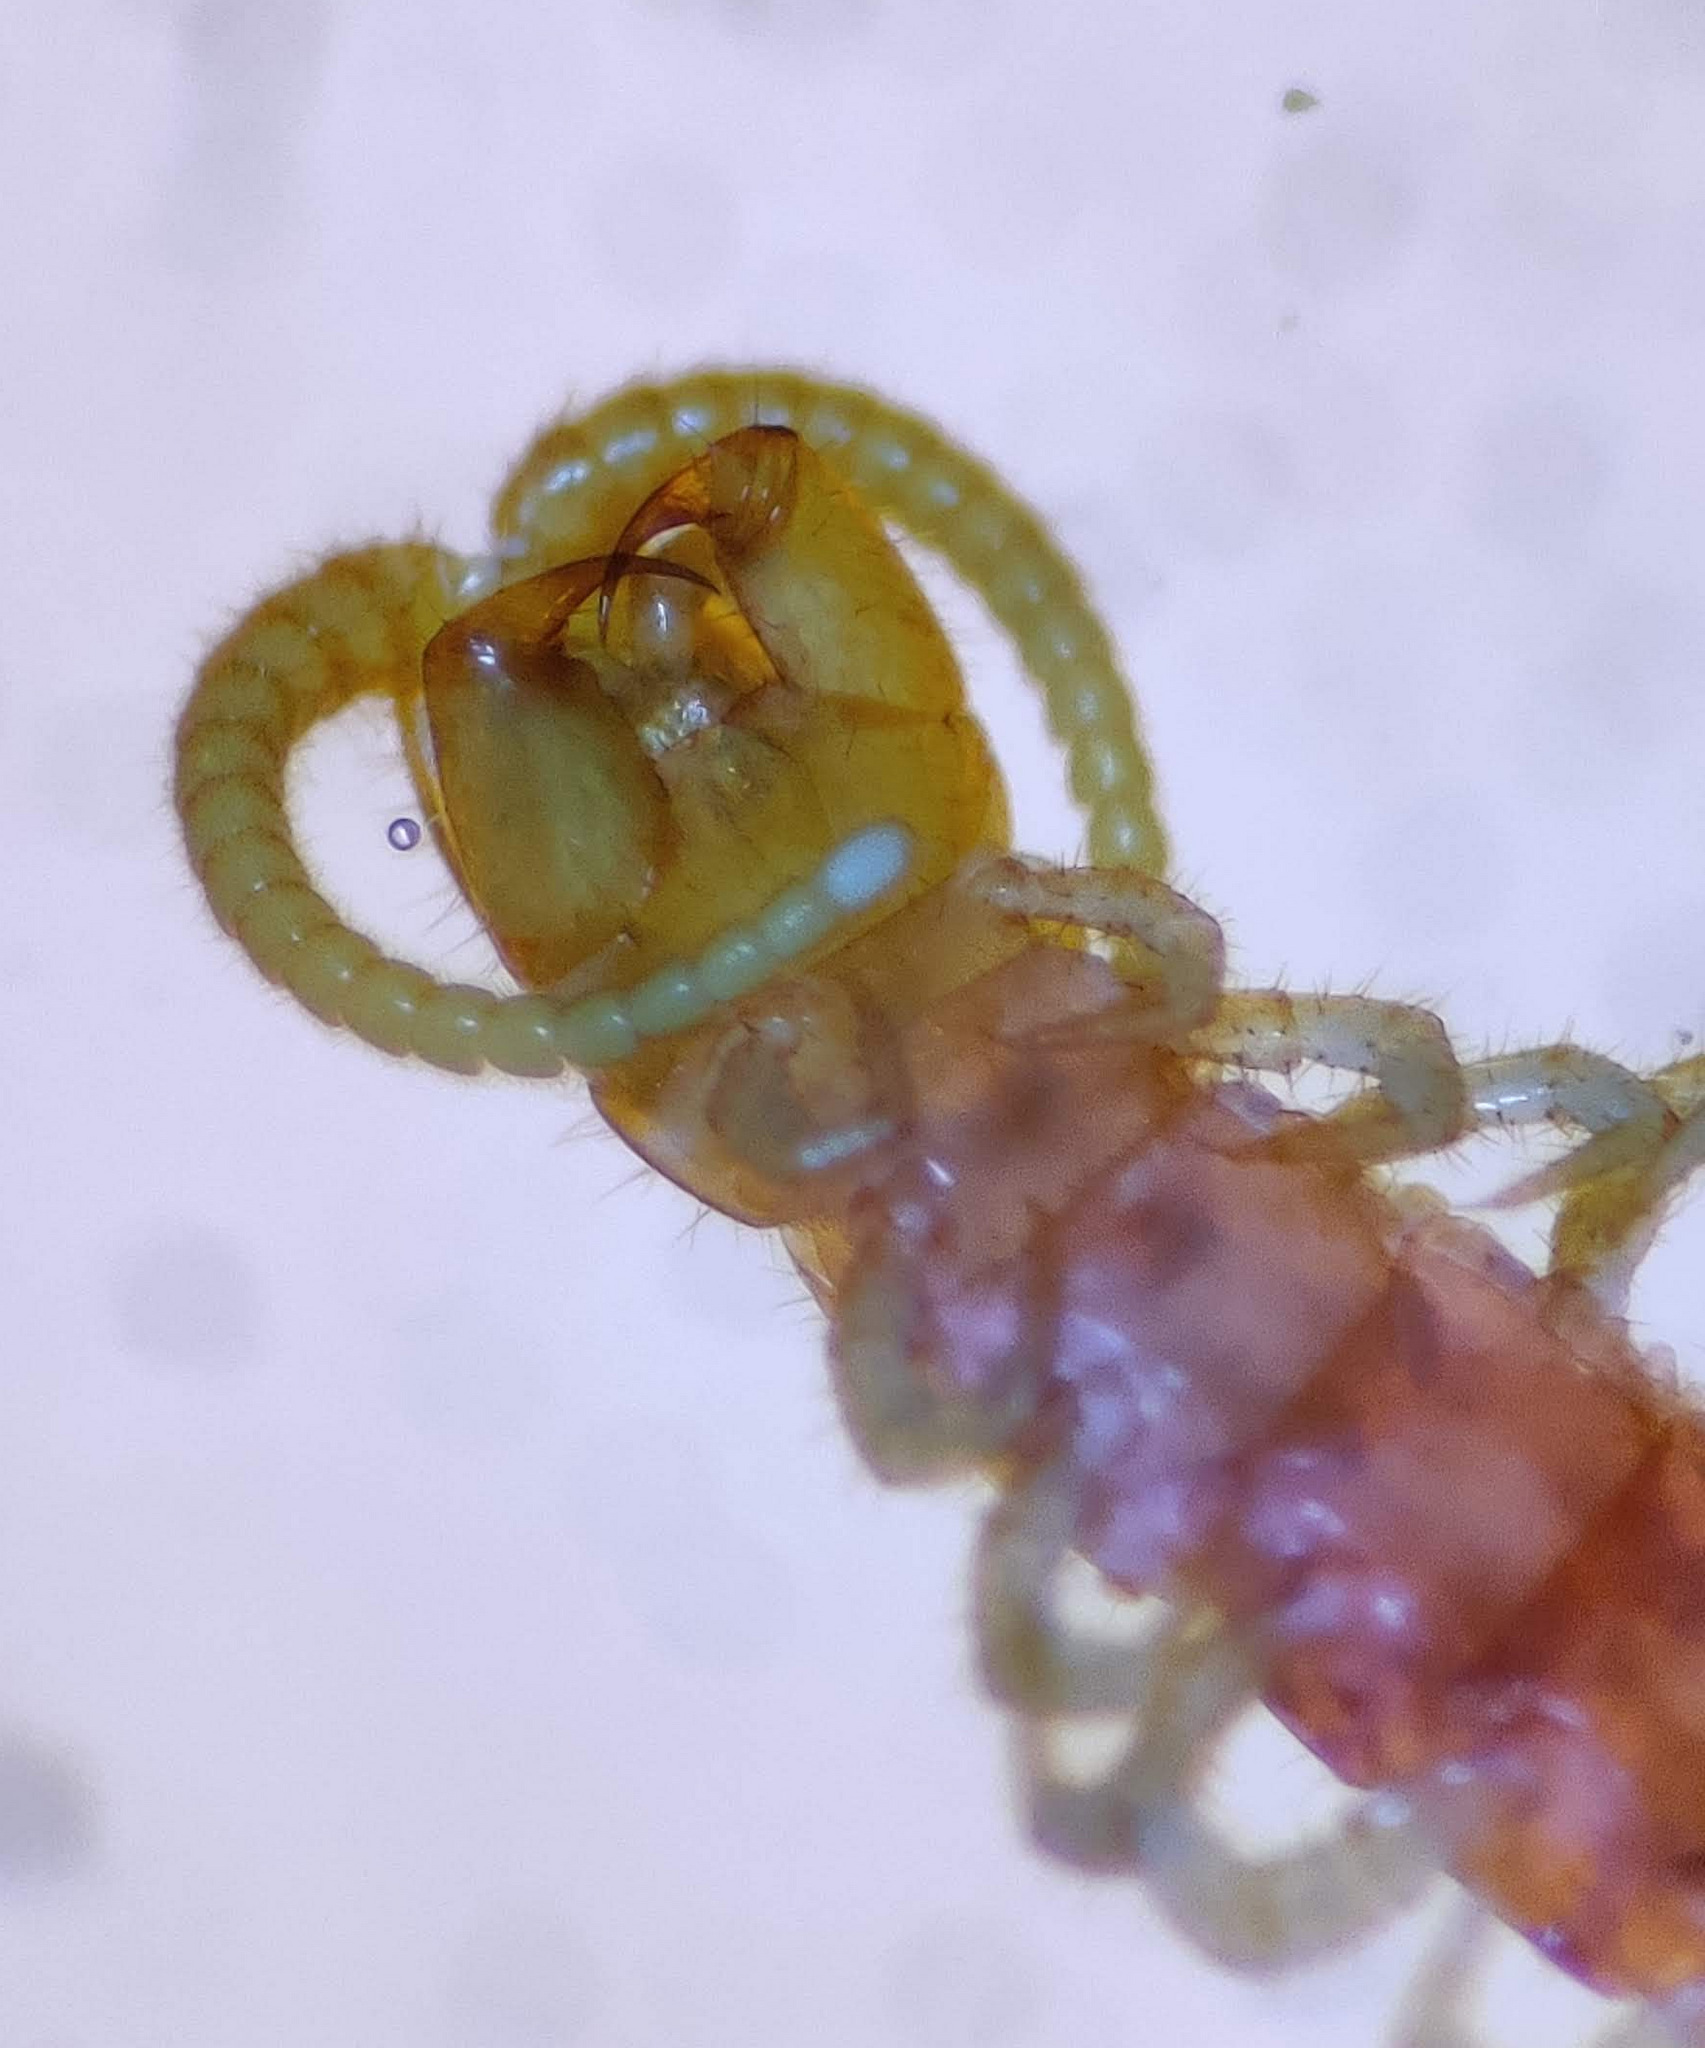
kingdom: Animalia
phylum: Arthropoda
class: Chilopoda
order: Scolopendromorpha
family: Cryptopidae
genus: Cryptops
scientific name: Cryptops hortensis
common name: Centipede
